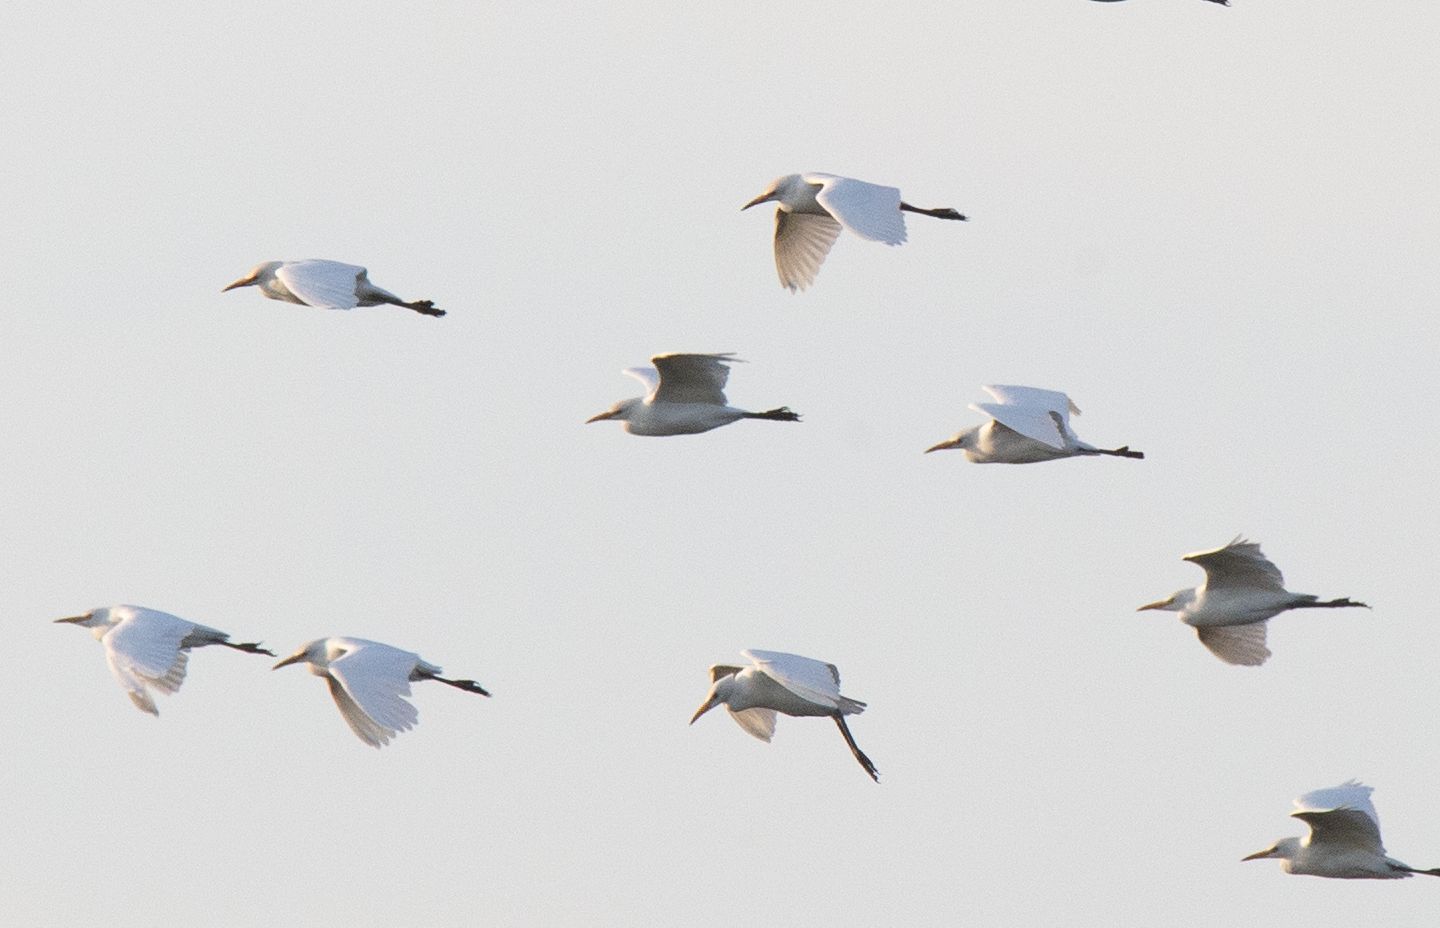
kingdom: Animalia
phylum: Chordata
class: Aves
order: Pelecaniformes
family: Ardeidae
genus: Bubulcus
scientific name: Bubulcus ibis
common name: Cattle egret
